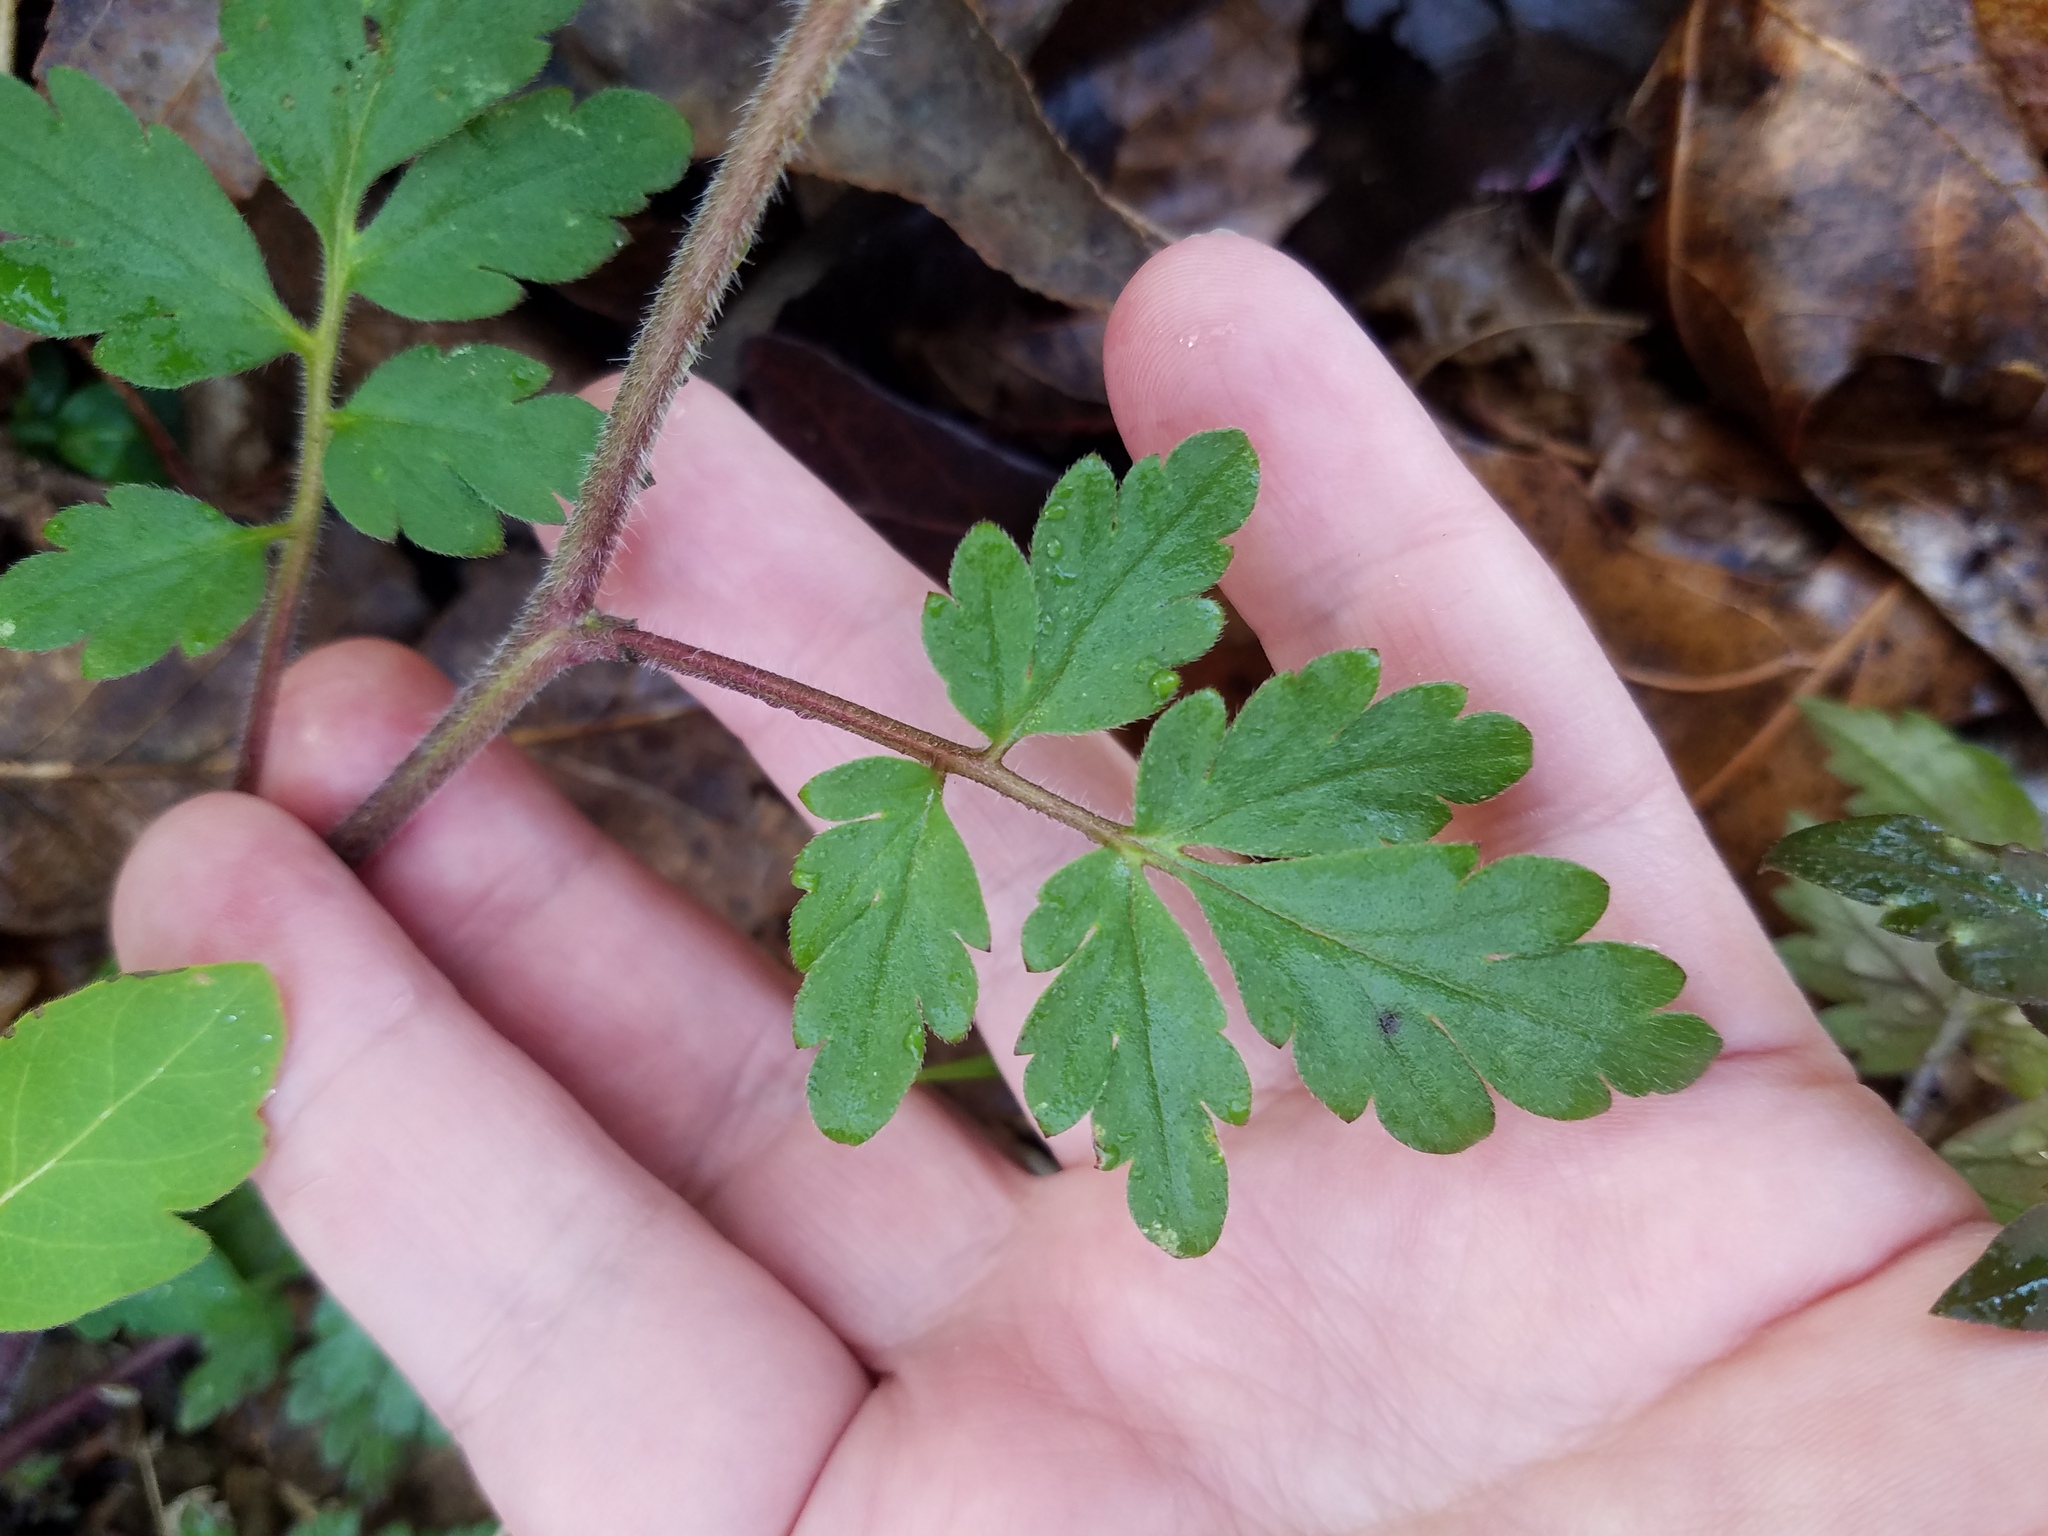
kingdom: Plantae
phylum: Tracheophyta
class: Magnoliopsida
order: Boraginales
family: Hydrophyllaceae
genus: Phacelia
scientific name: Phacelia bipinnatifida
